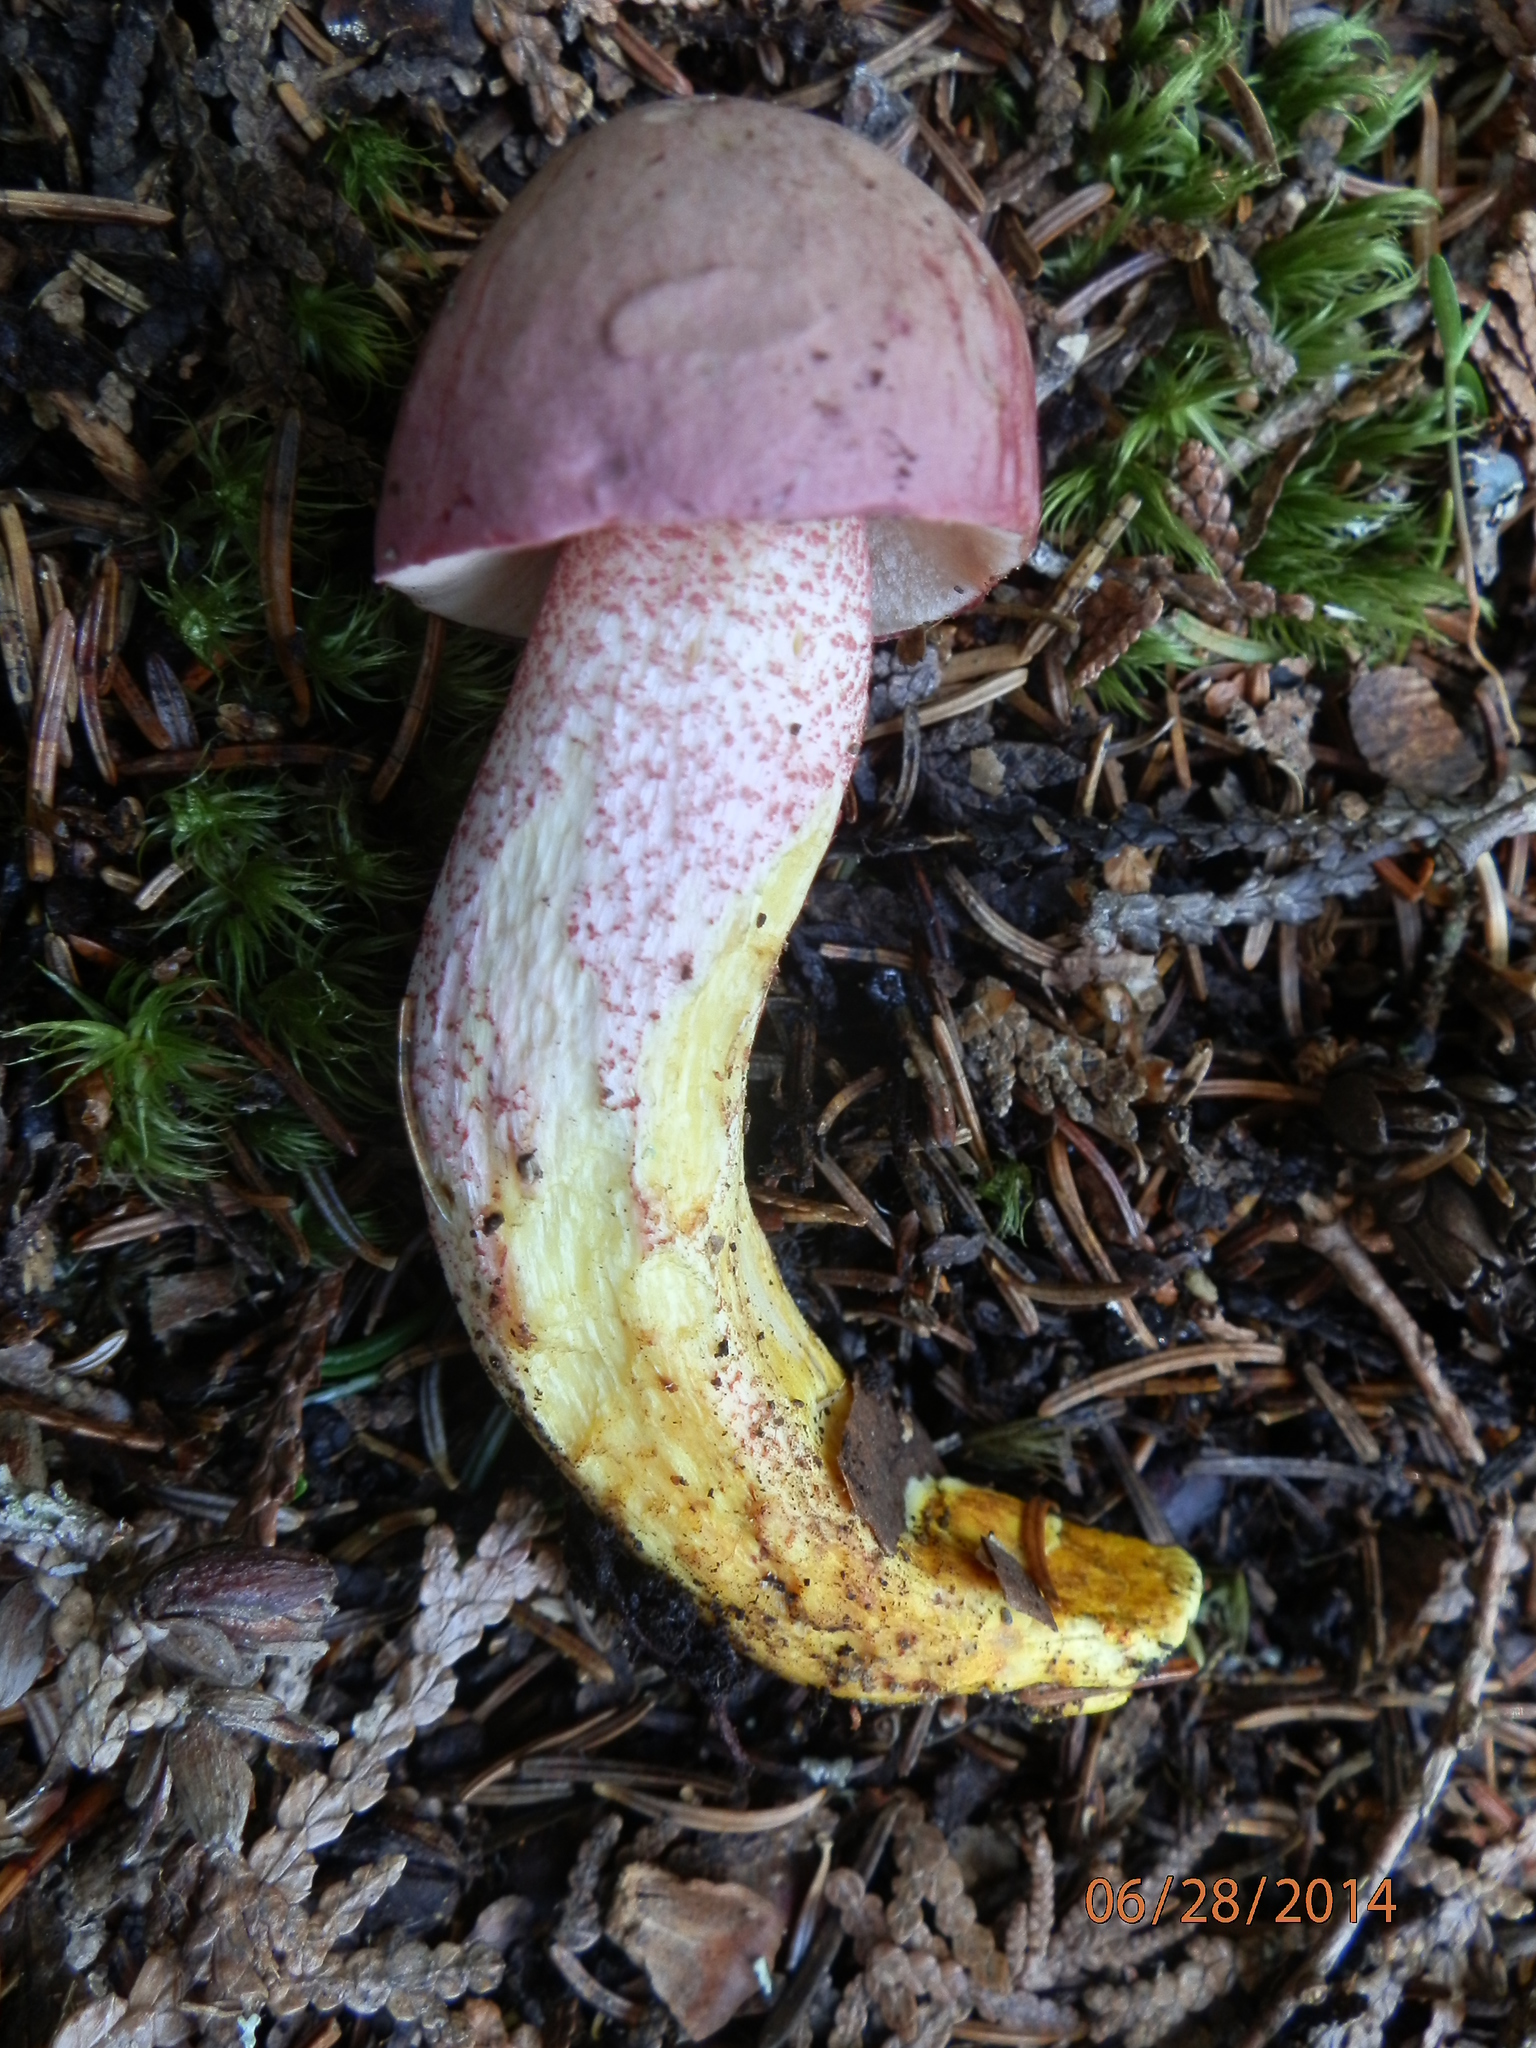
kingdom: Fungi
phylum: Basidiomycota
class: Agaricomycetes
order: Boletales
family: Boletaceae
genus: Harrya
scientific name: Harrya chromipes
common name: Chrome-footed bolete
